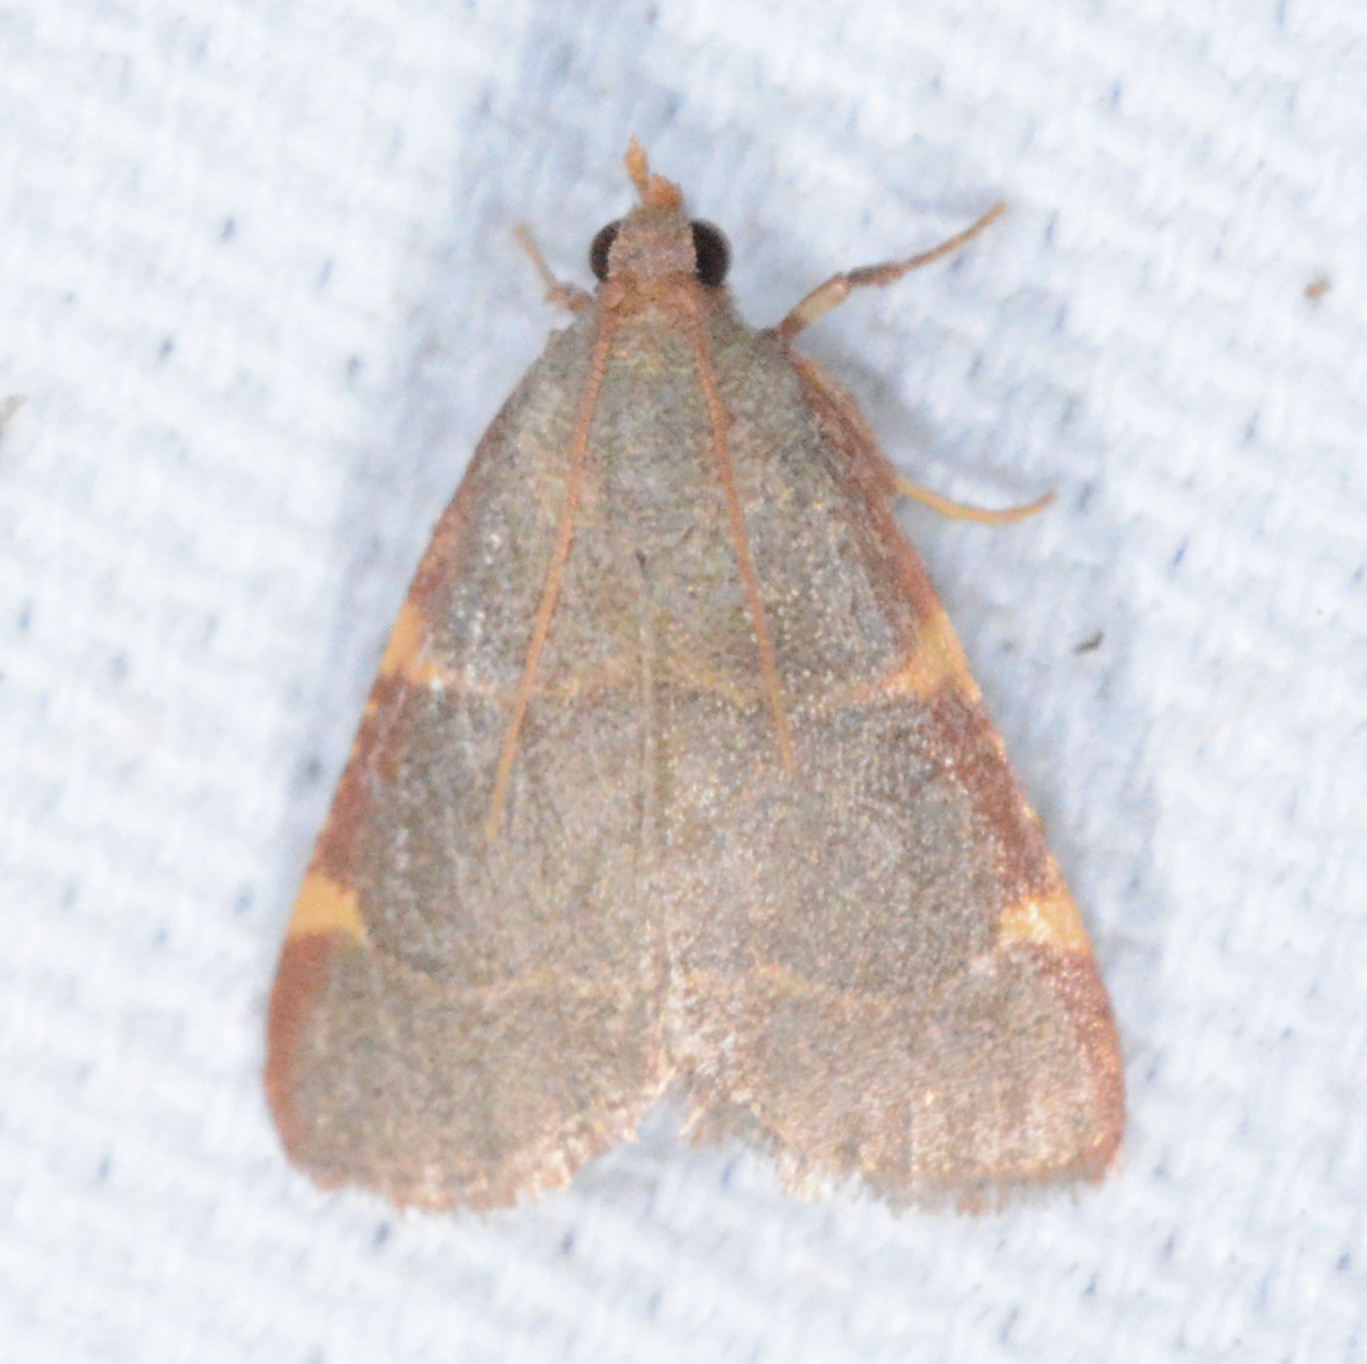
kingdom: Animalia
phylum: Arthropoda
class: Insecta
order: Lepidoptera
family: Pyralidae
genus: Hypsopygia
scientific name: Hypsopygia binodulalis
